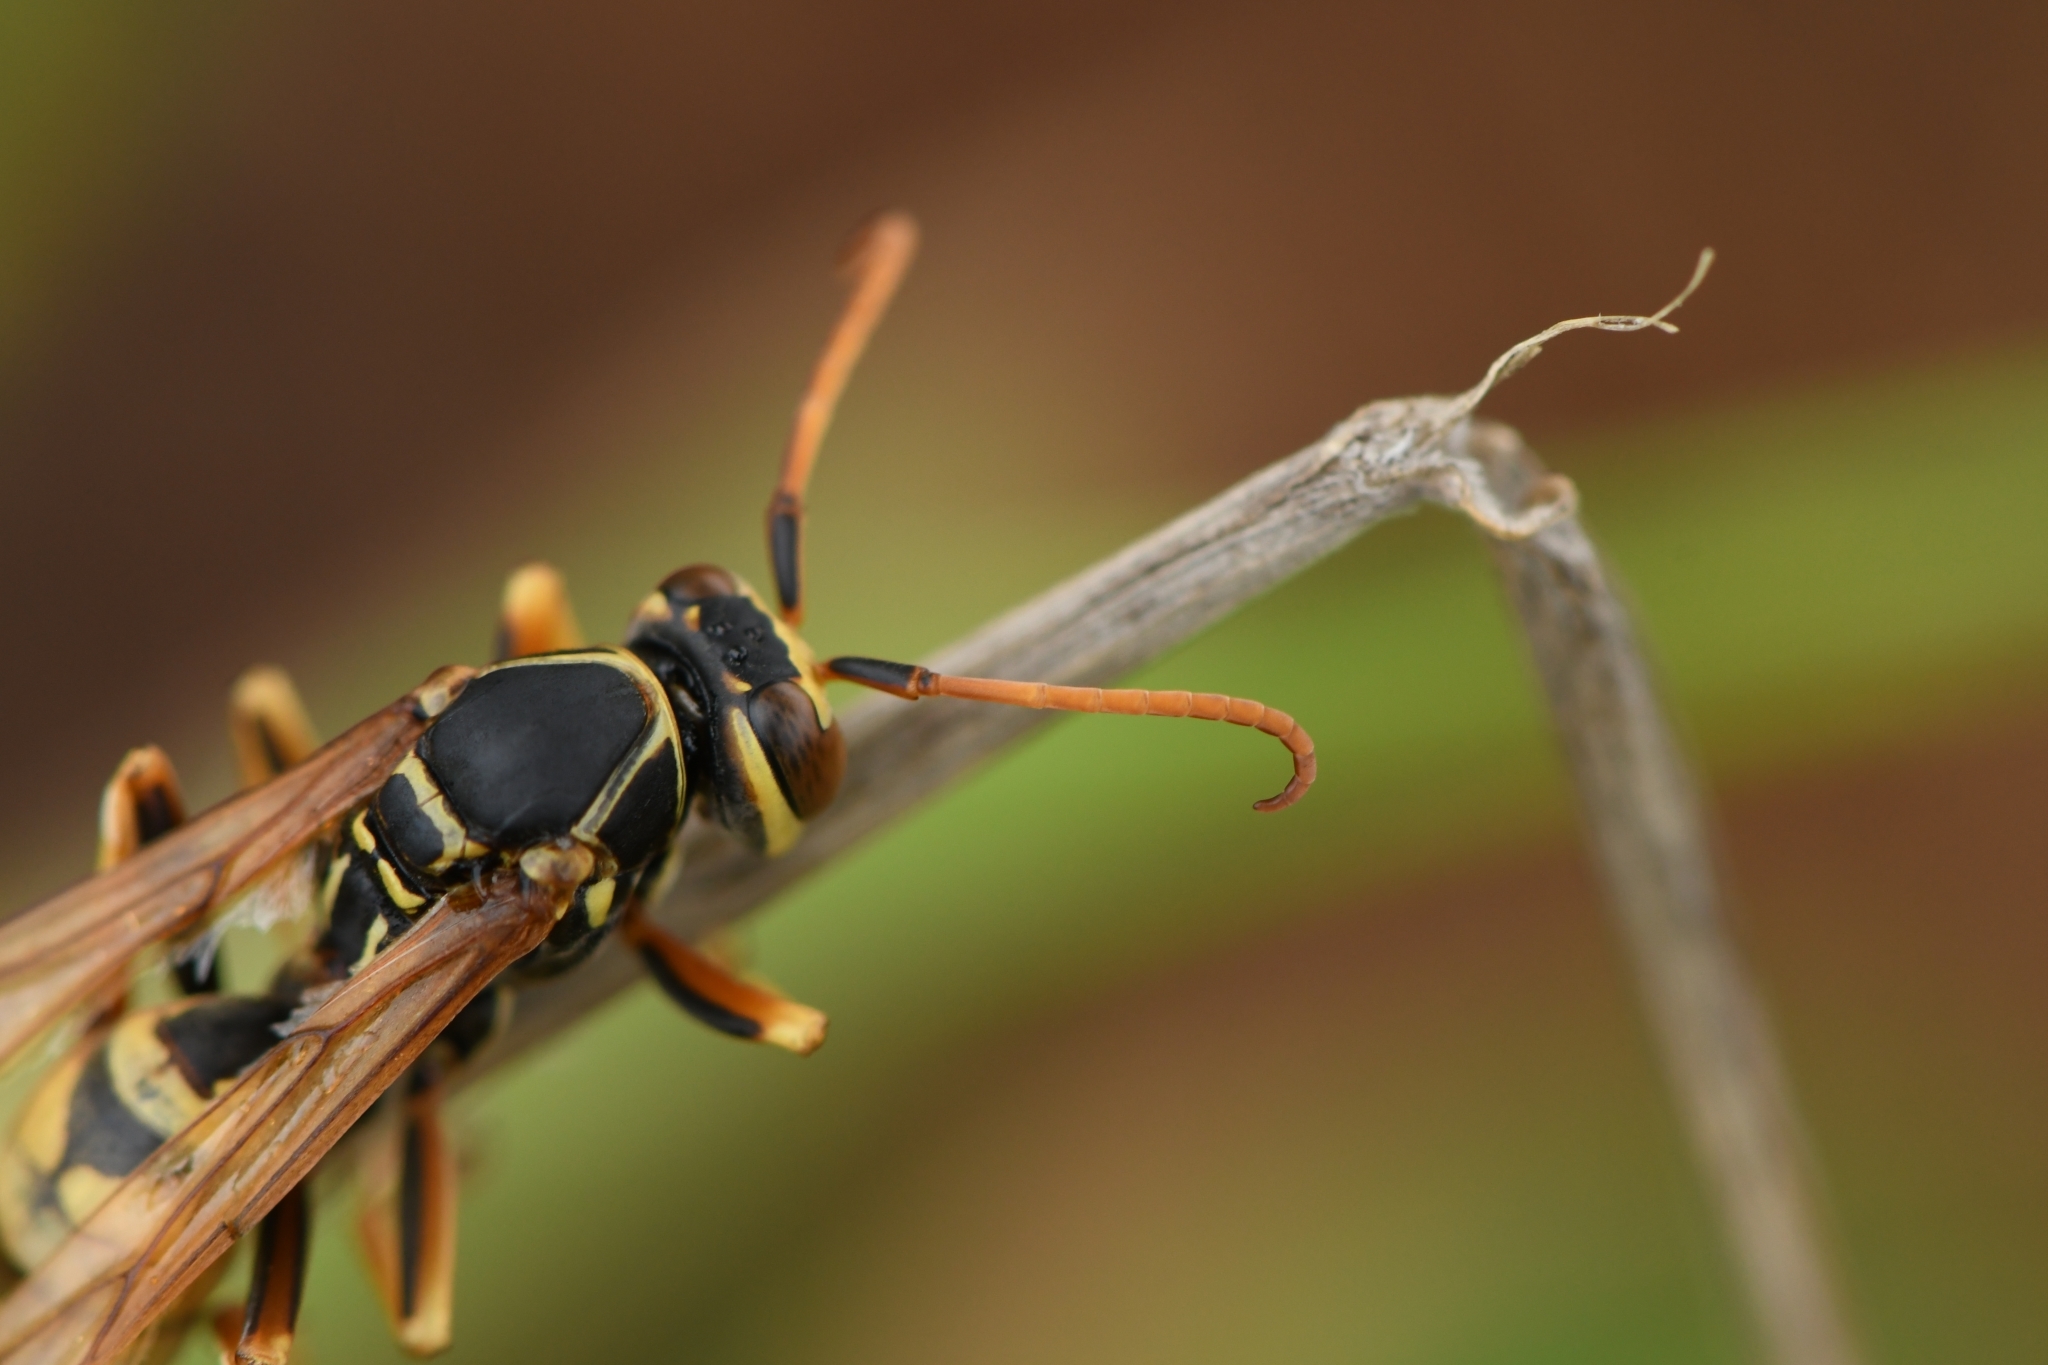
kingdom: Animalia
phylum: Arthropoda
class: Insecta
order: Hymenoptera
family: Eumenidae
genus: Polistes
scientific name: Polistes aurifer
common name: Paper wasp
